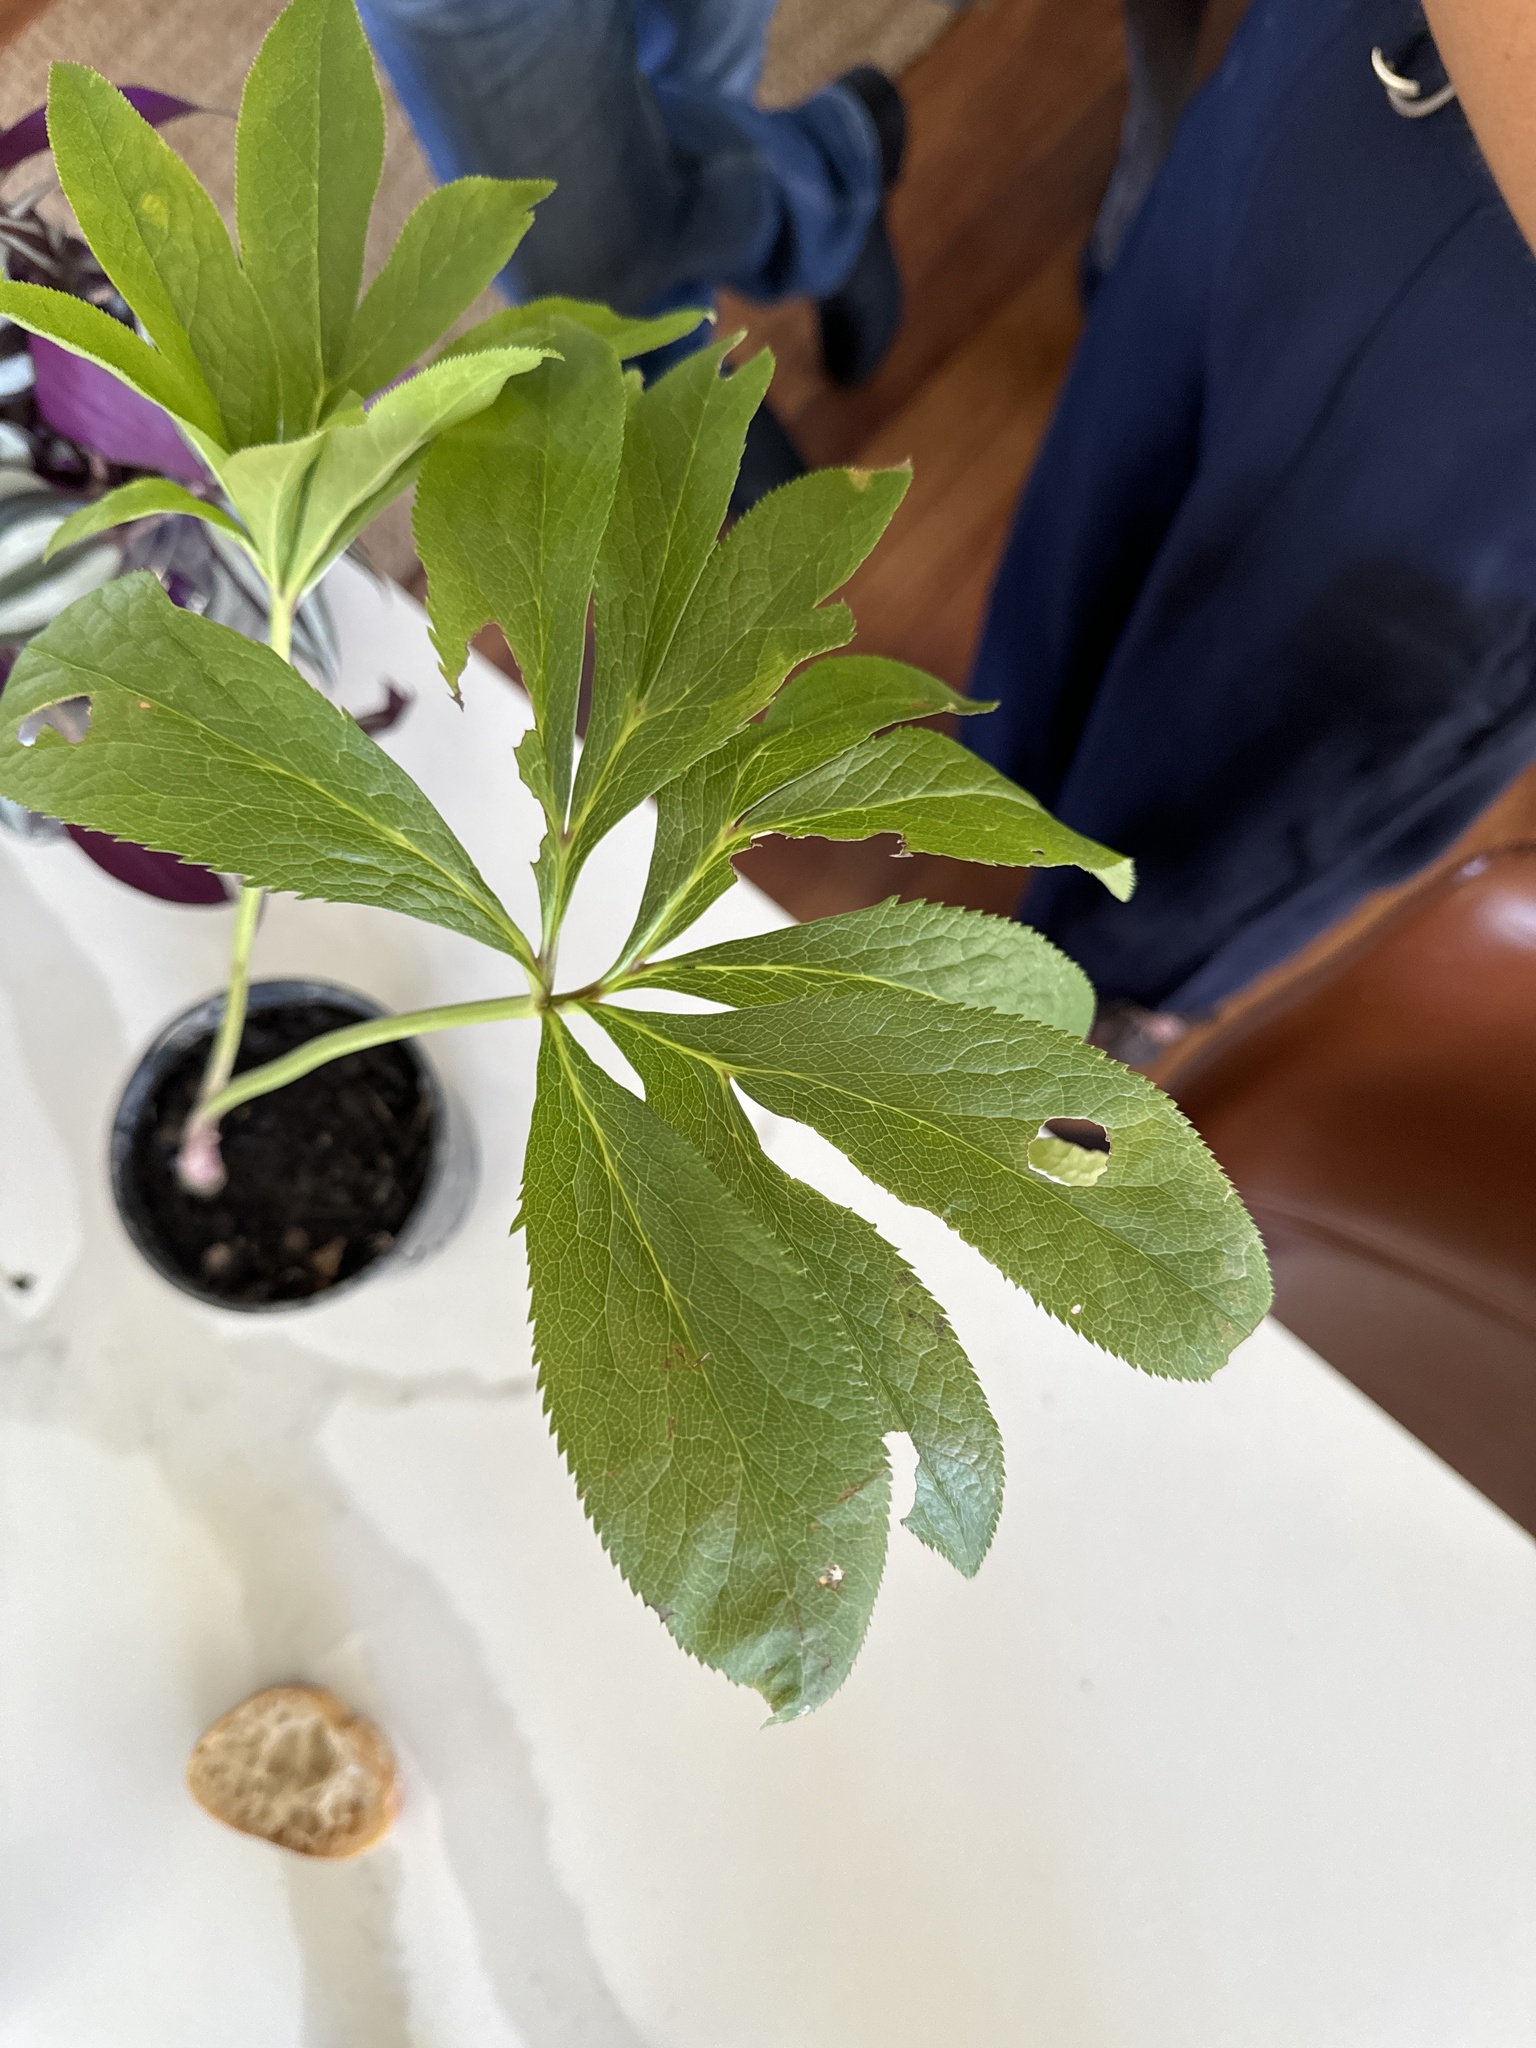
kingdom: Plantae
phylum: Tracheophyta
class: Magnoliopsida
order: Ranunculales
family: Ranunculaceae
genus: Helleborus
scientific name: Helleborus orientalis
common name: Lenten-rose
